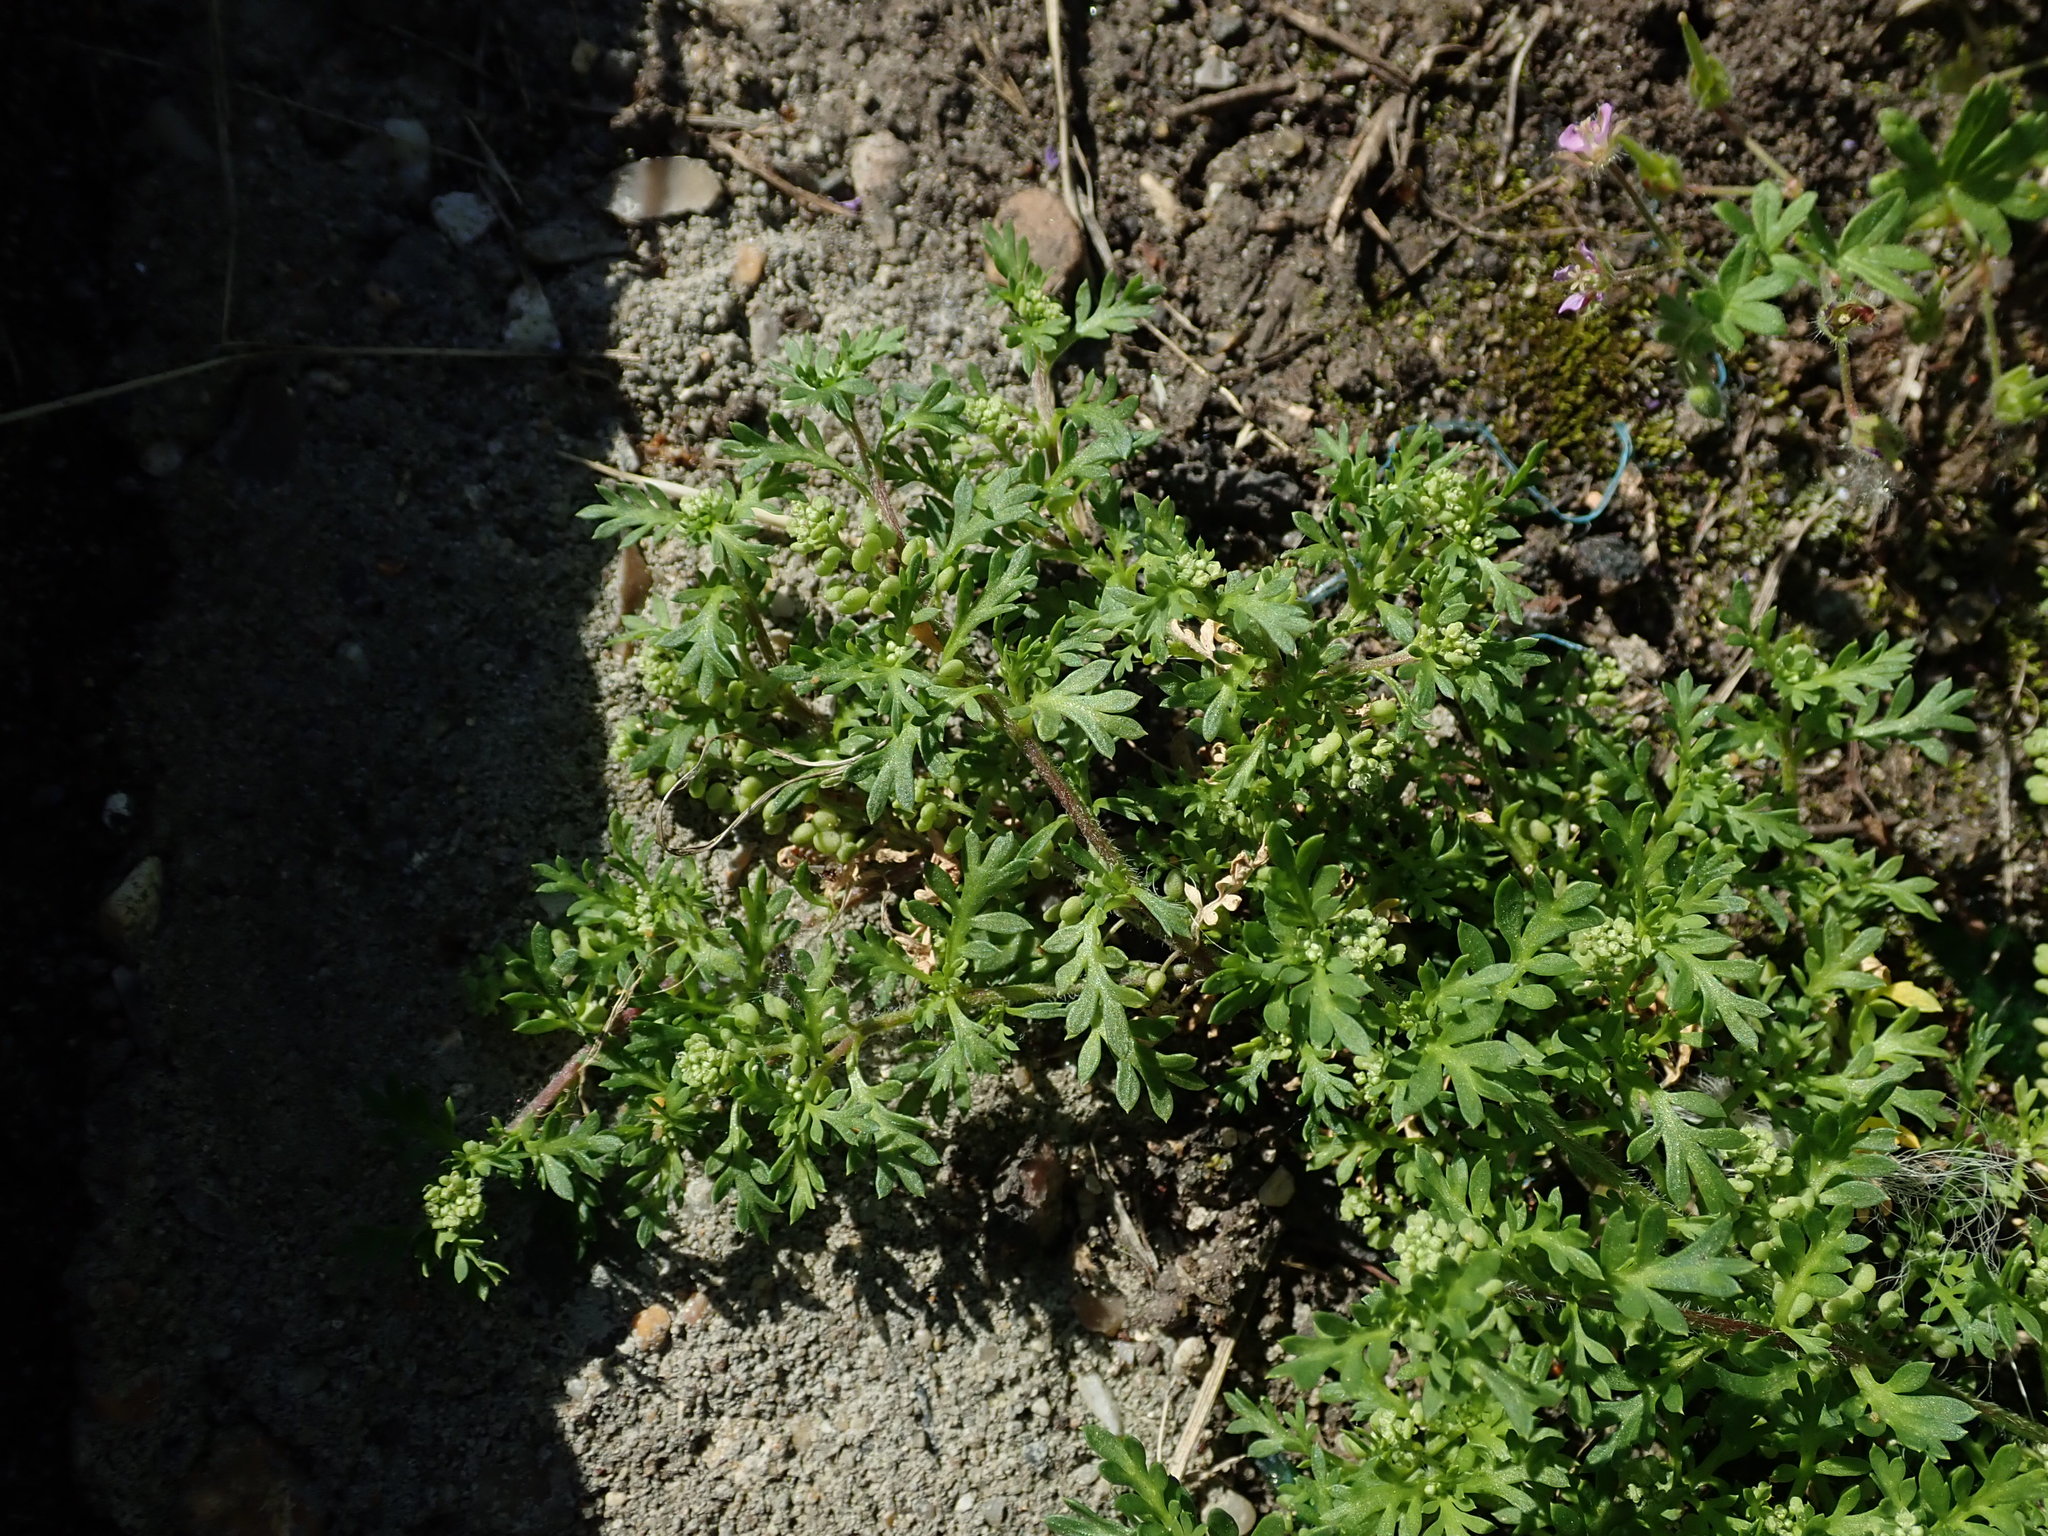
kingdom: Plantae
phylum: Tracheophyta
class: Magnoliopsida
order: Brassicales
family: Brassicaceae
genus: Lepidium
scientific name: Lepidium didymum
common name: Lesser swinecress
